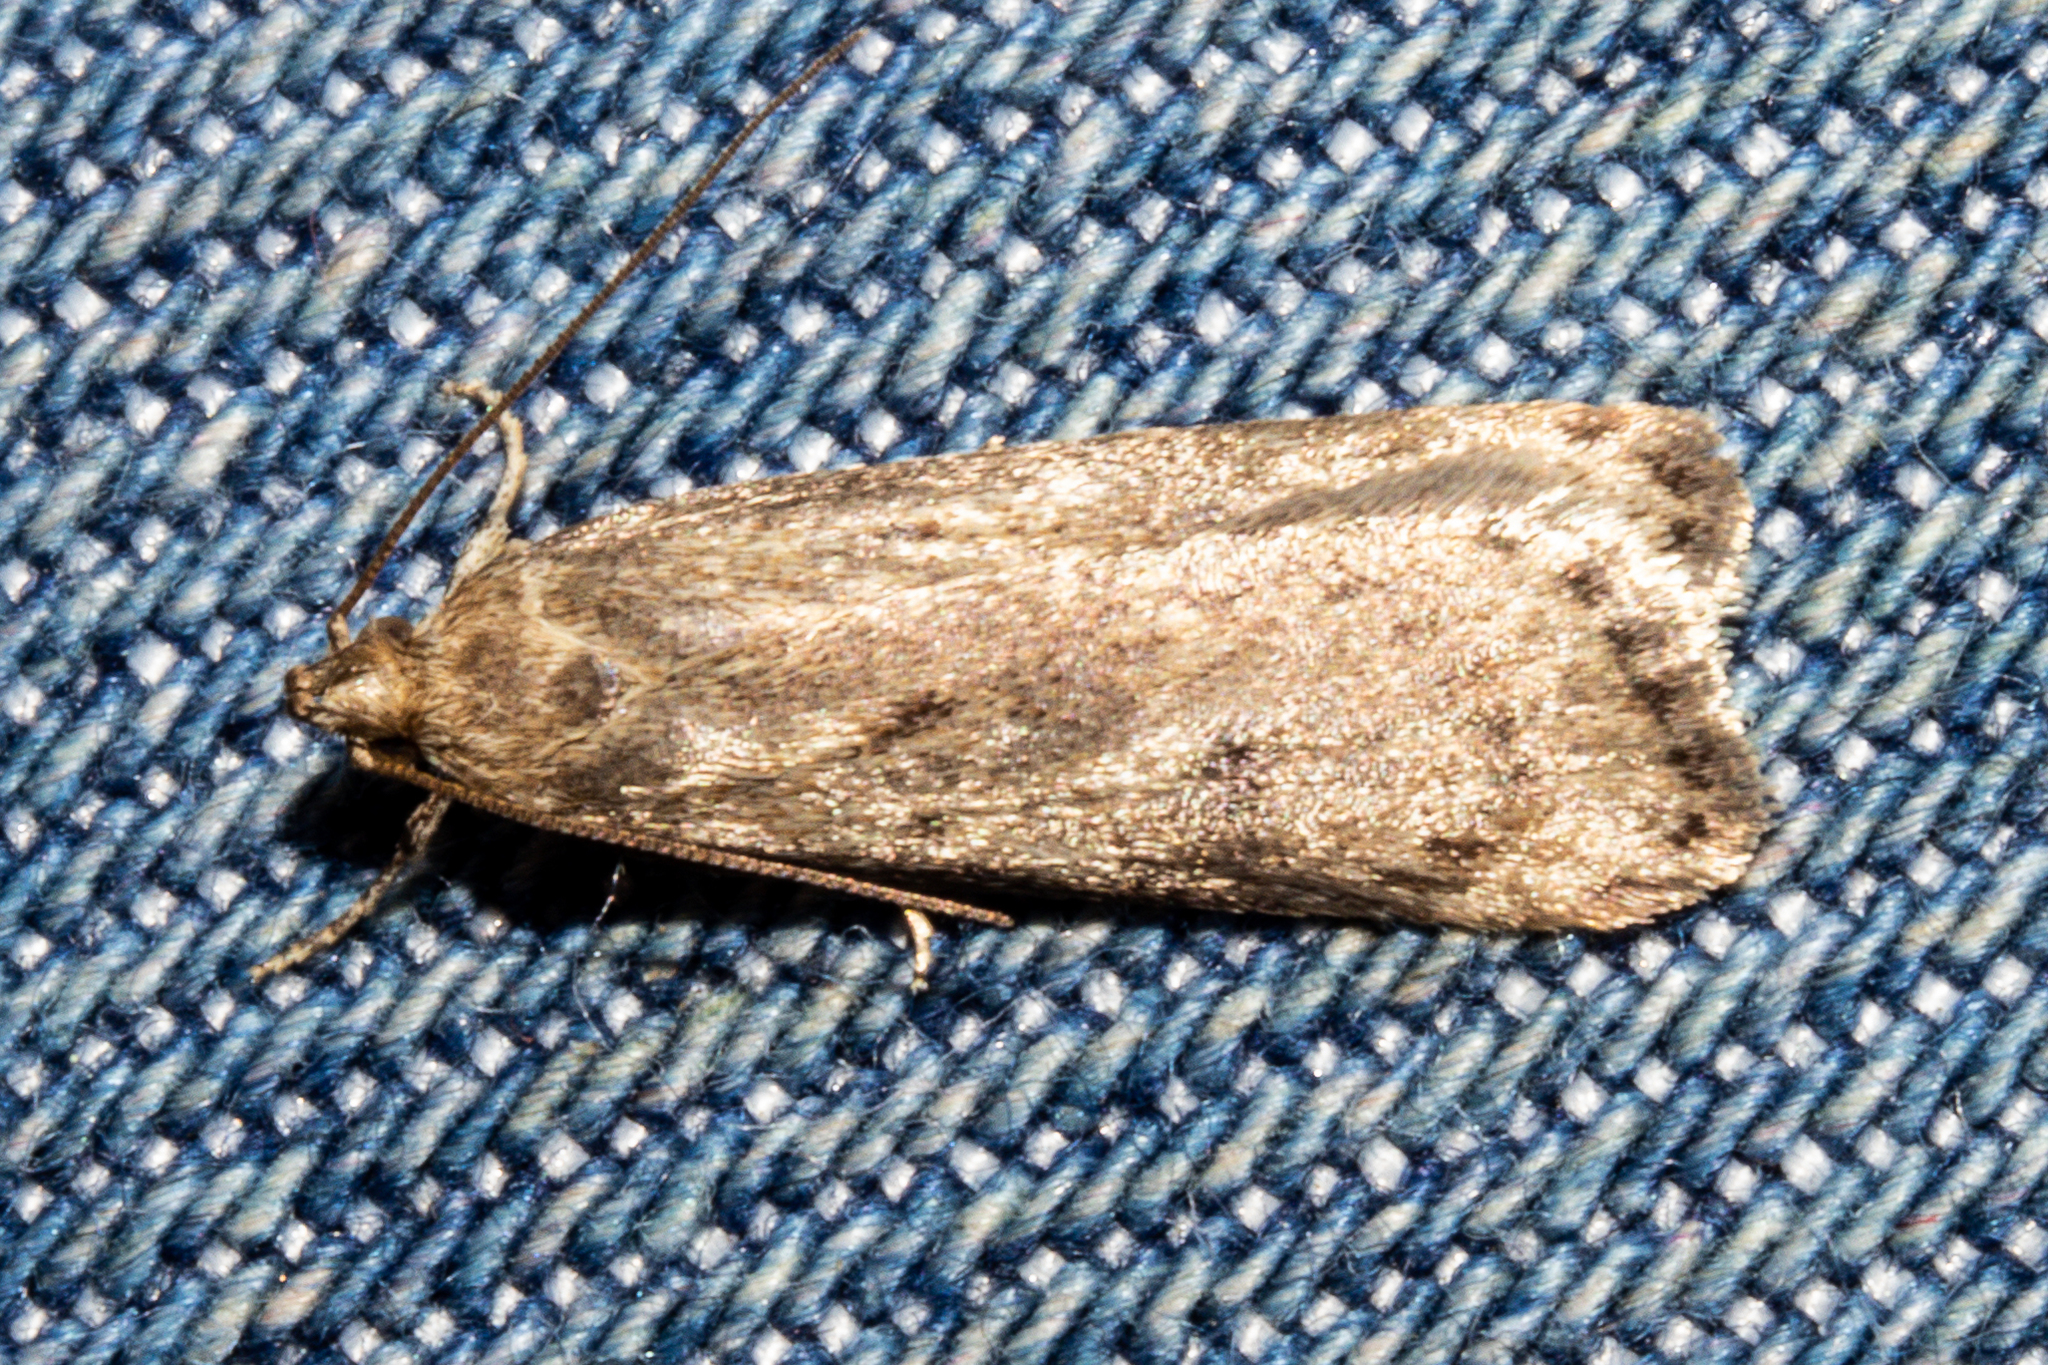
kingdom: Animalia
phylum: Arthropoda
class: Insecta
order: Lepidoptera
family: Depressariidae
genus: Phaeosaces
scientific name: Phaeosaces apocrypta
